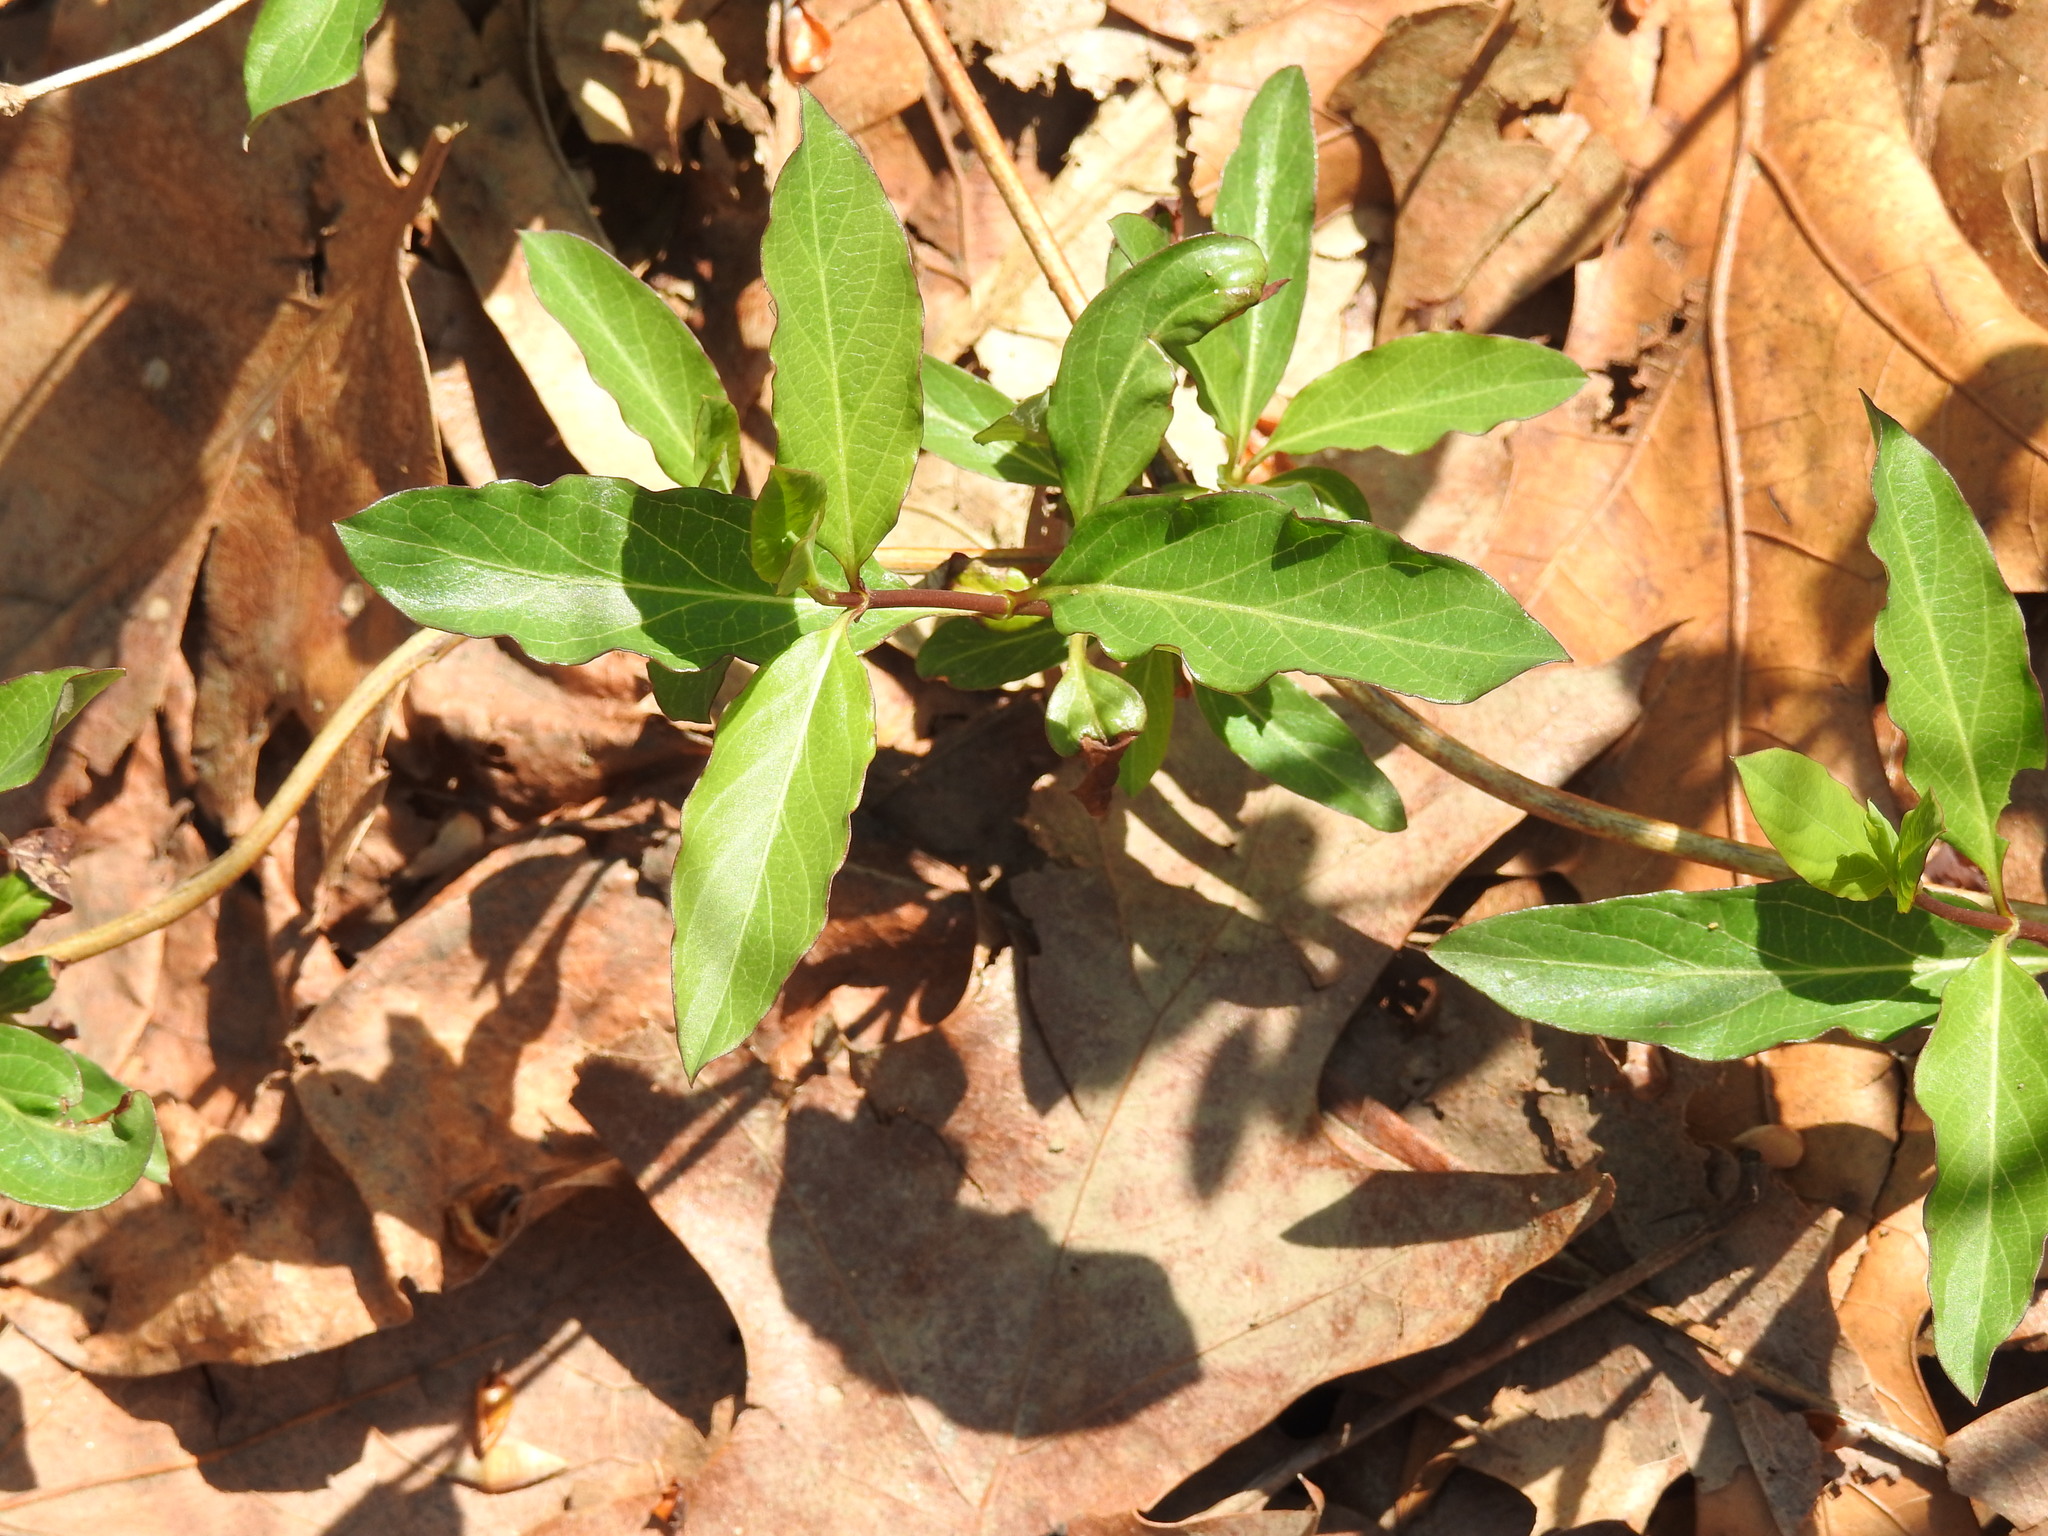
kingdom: Plantae
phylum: Tracheophyta
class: Magnoliopsida
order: Dipsacales
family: Caprifoliaceae
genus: Lonicera
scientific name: Lonicera japonica
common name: Japanese honeysuckle
